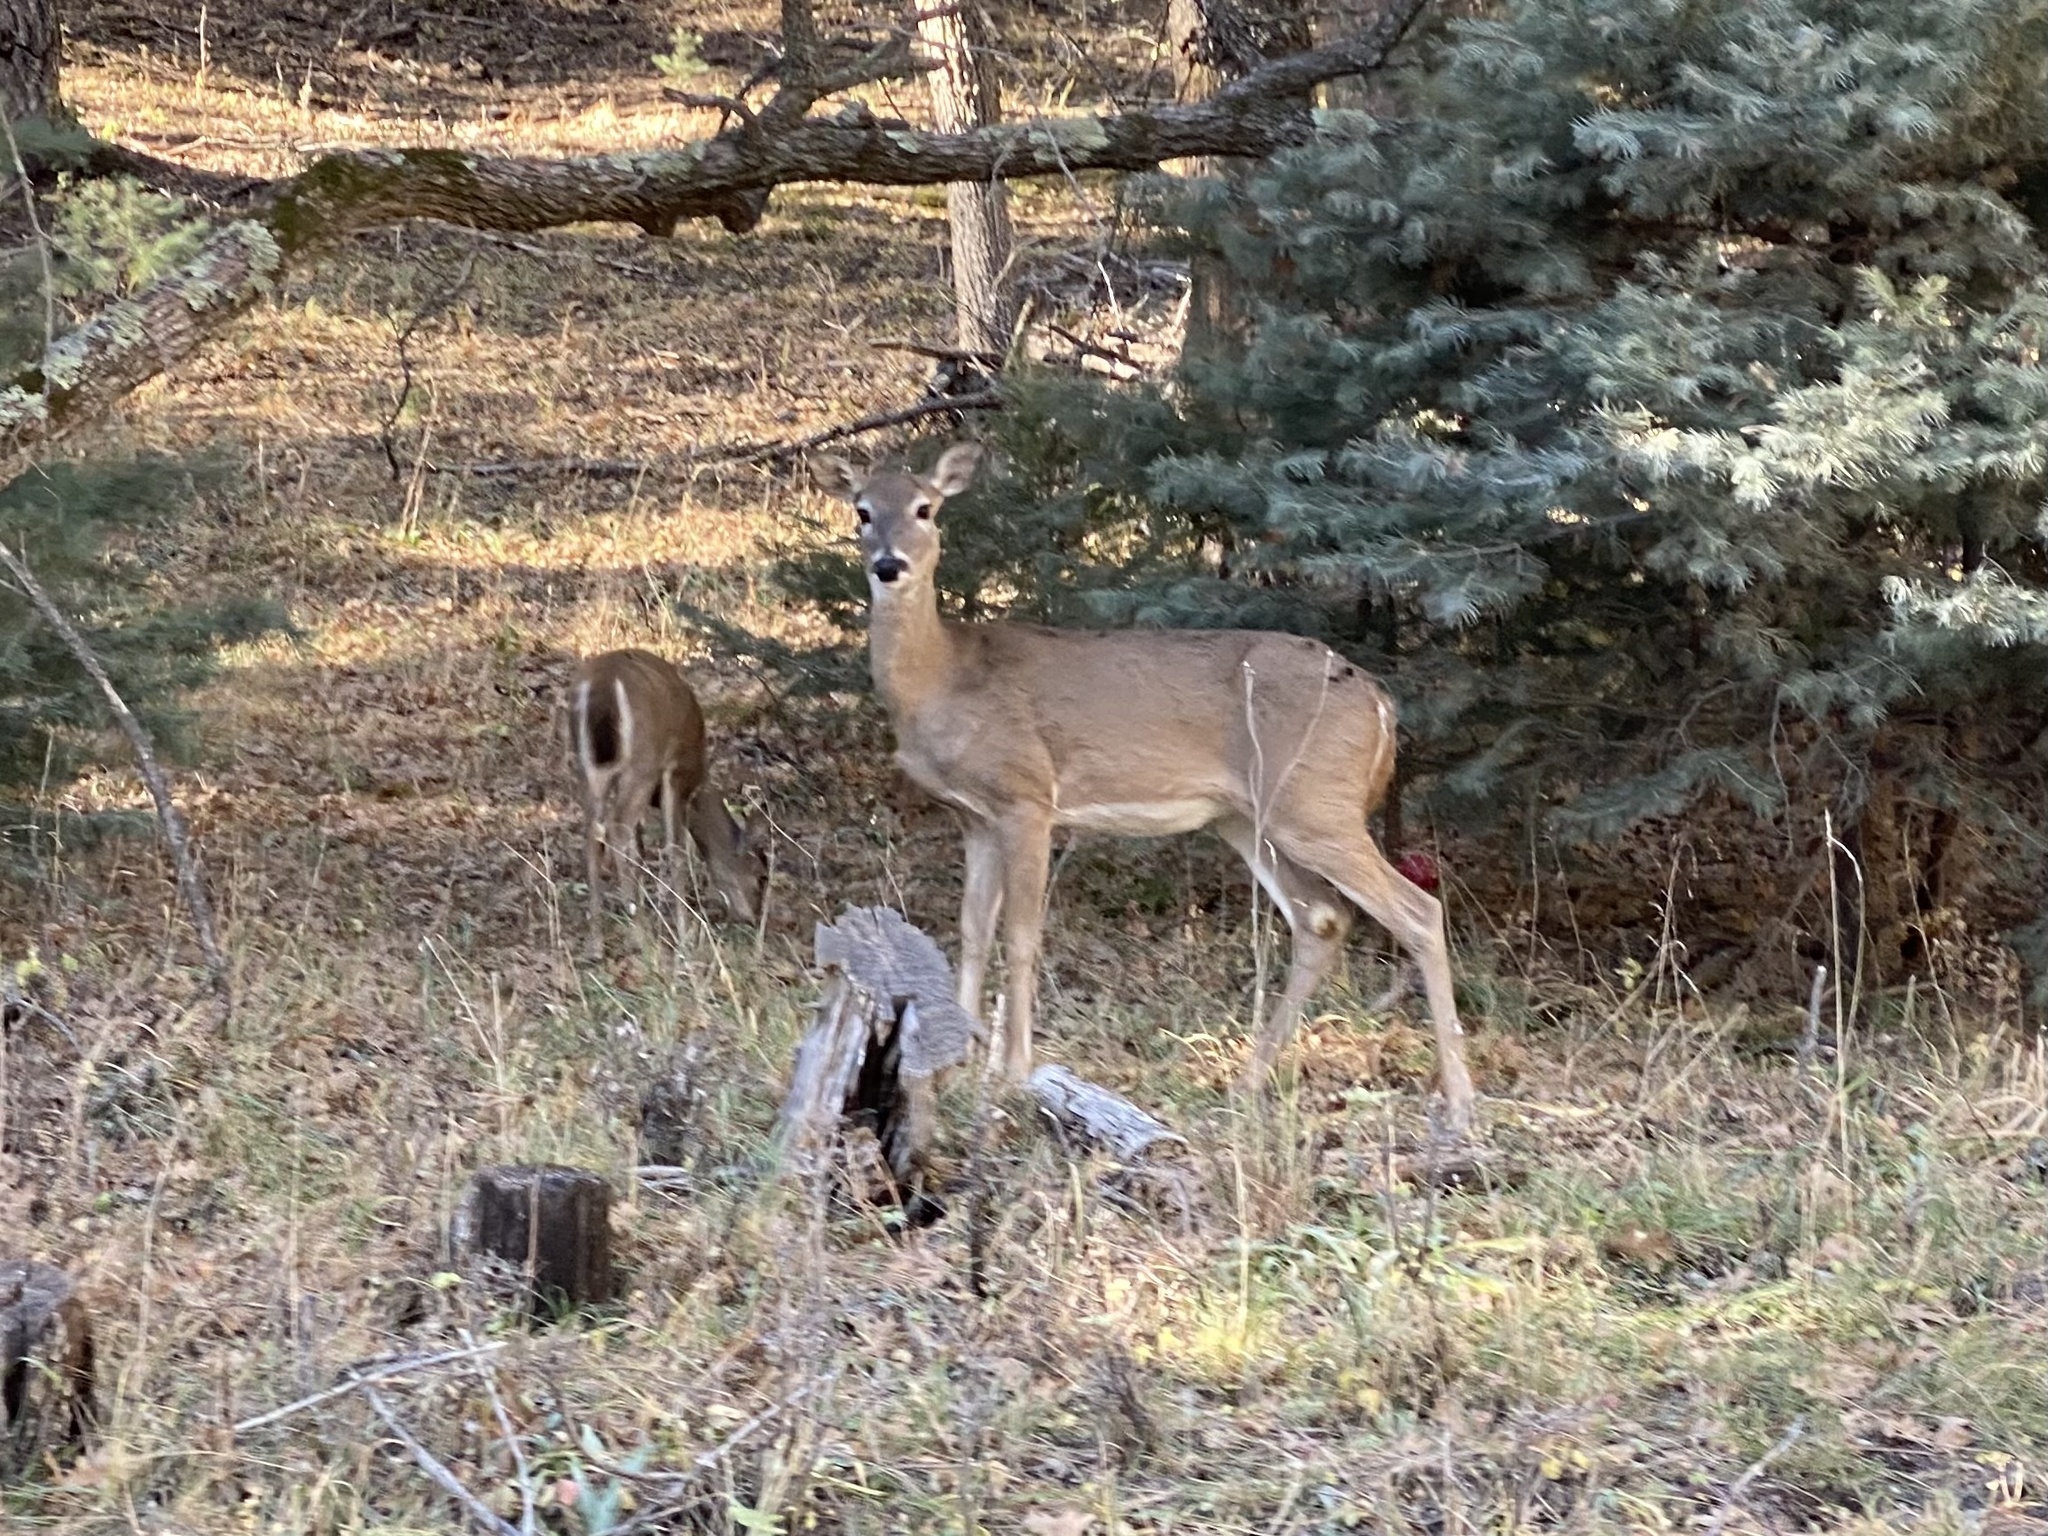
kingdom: Animalia
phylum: Chordata
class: Mammalia
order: Artiodactyla
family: Cervidae
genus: Odocoileus
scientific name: Odocoileus virginianus
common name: White-tailed deer
